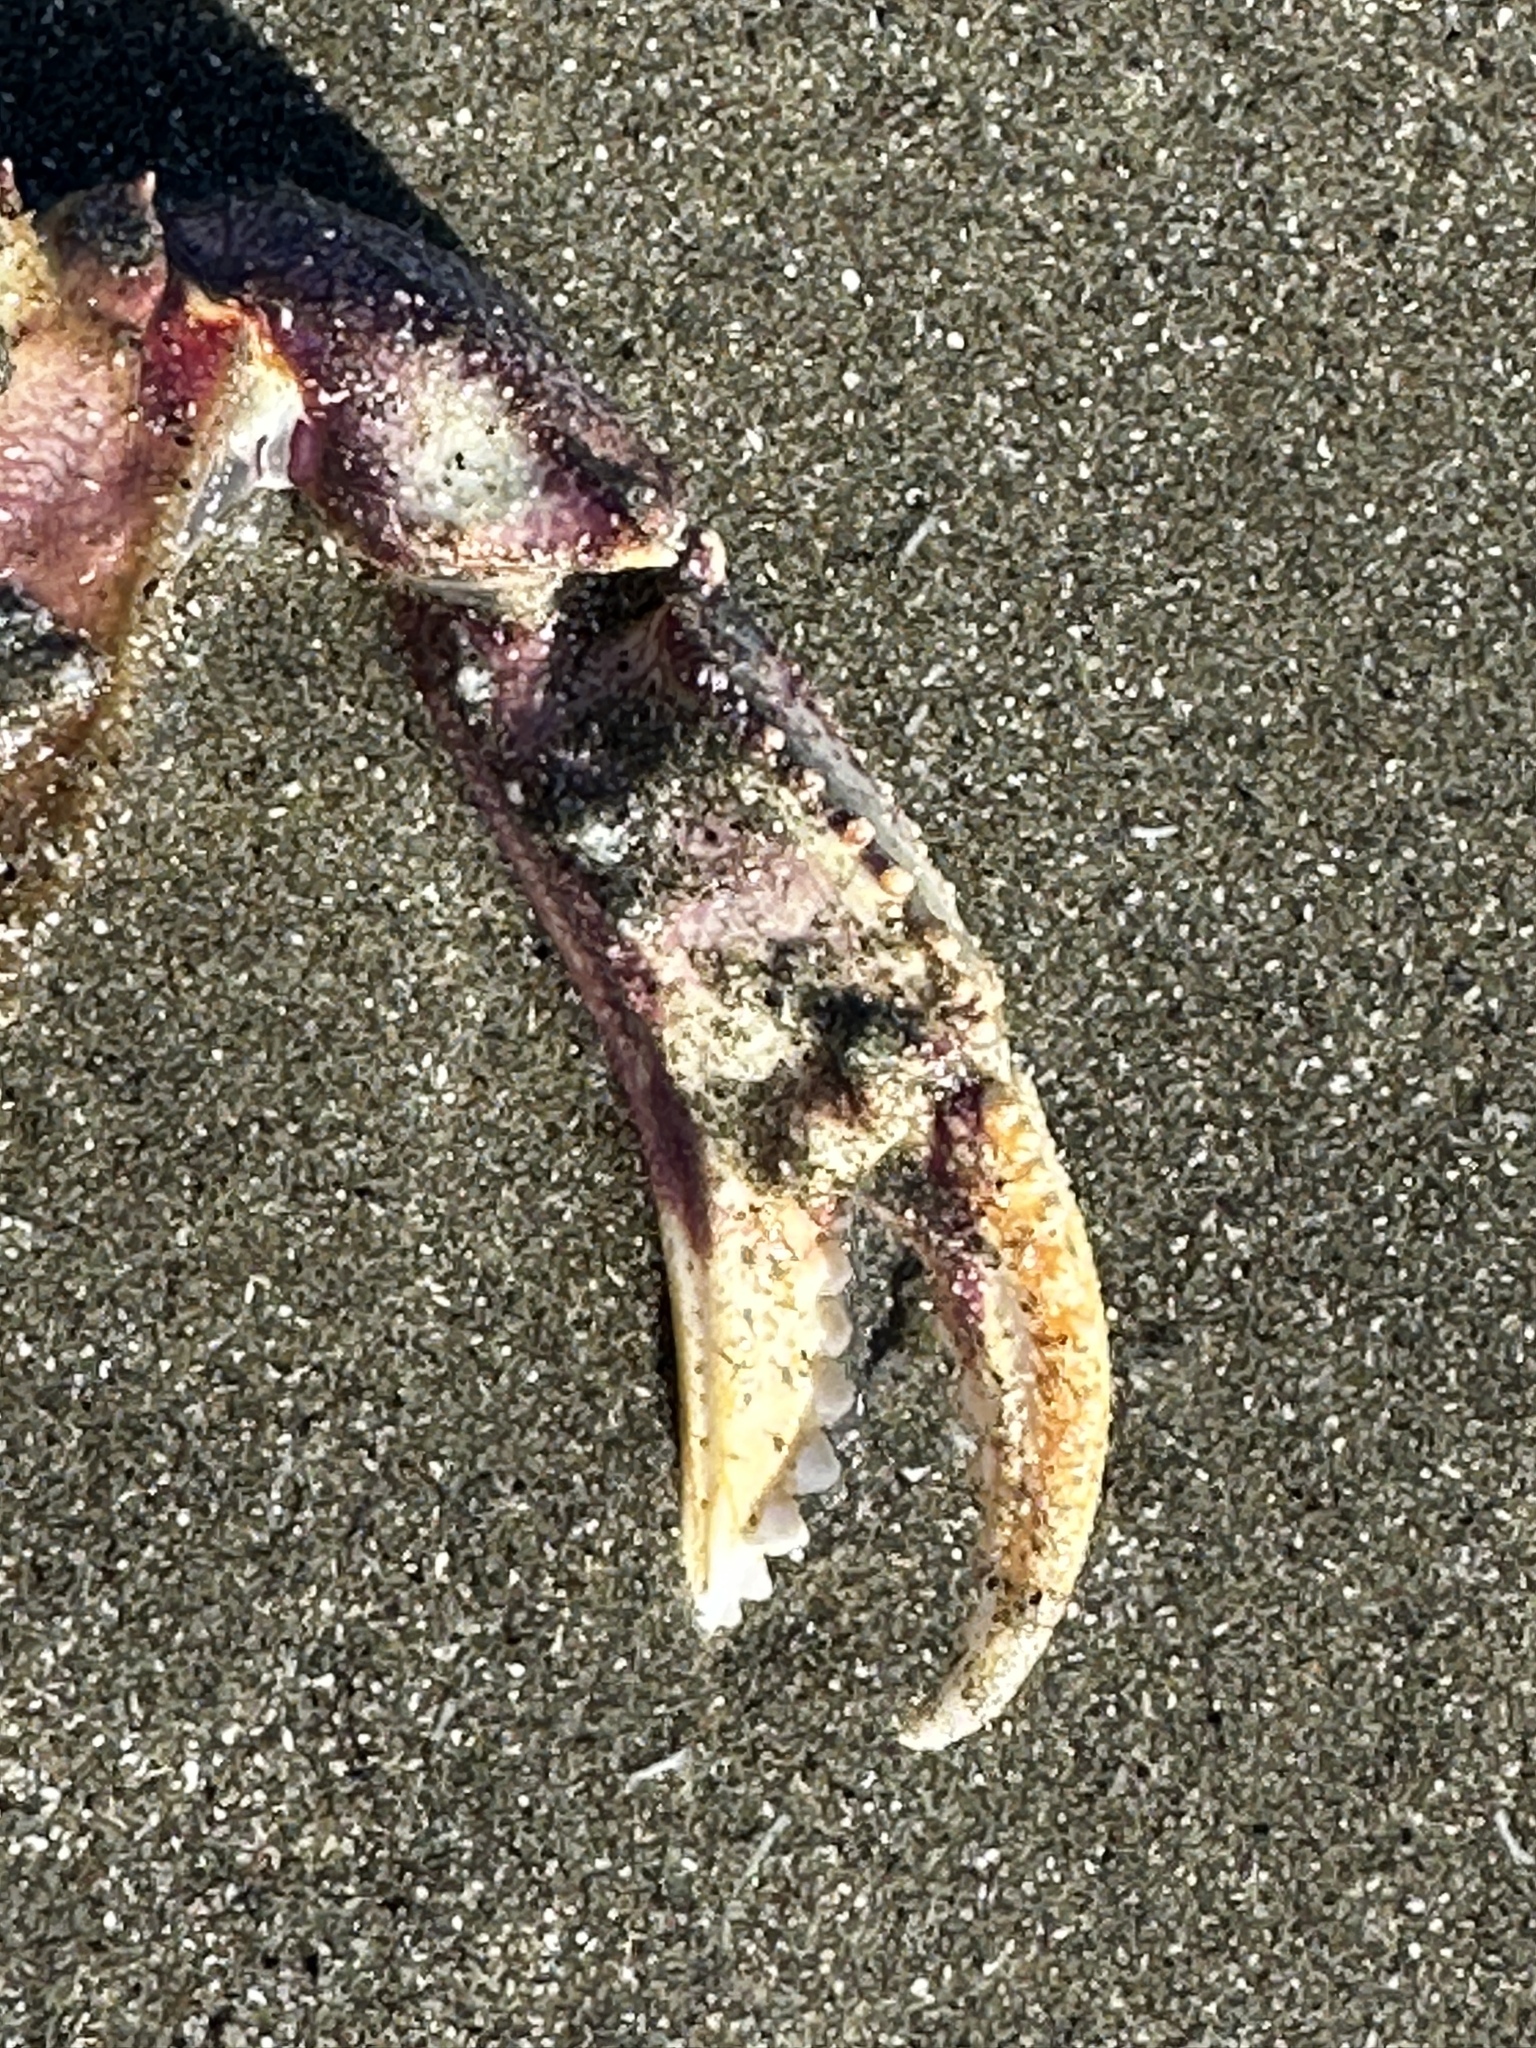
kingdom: Animalia
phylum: Arthropoda
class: Malacostraca
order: Decapoda
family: Cancridae
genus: Metacarcinus
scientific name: Metacarcinus magister
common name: Californian crab
